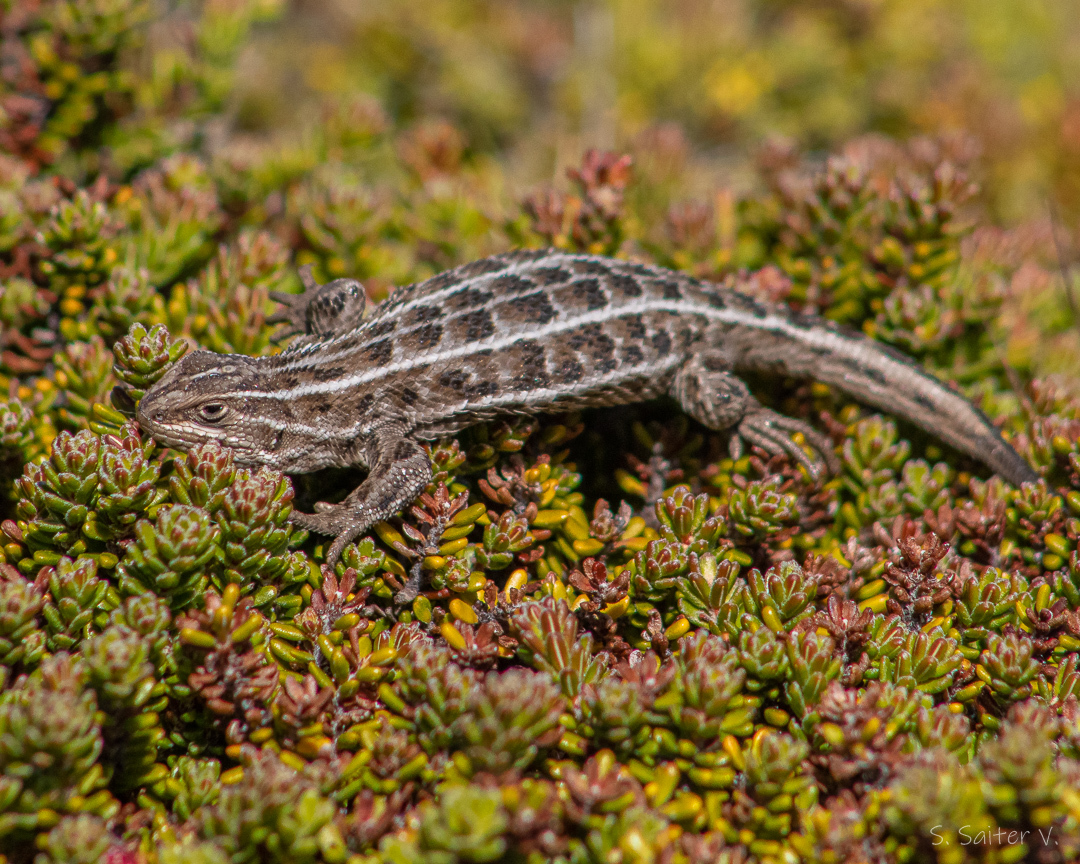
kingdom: Animalia
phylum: Chordata
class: Squamata
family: Liolaemidae
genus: Liolaemus
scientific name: Liolaemus magellanicus
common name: Magellan's tree iguana
